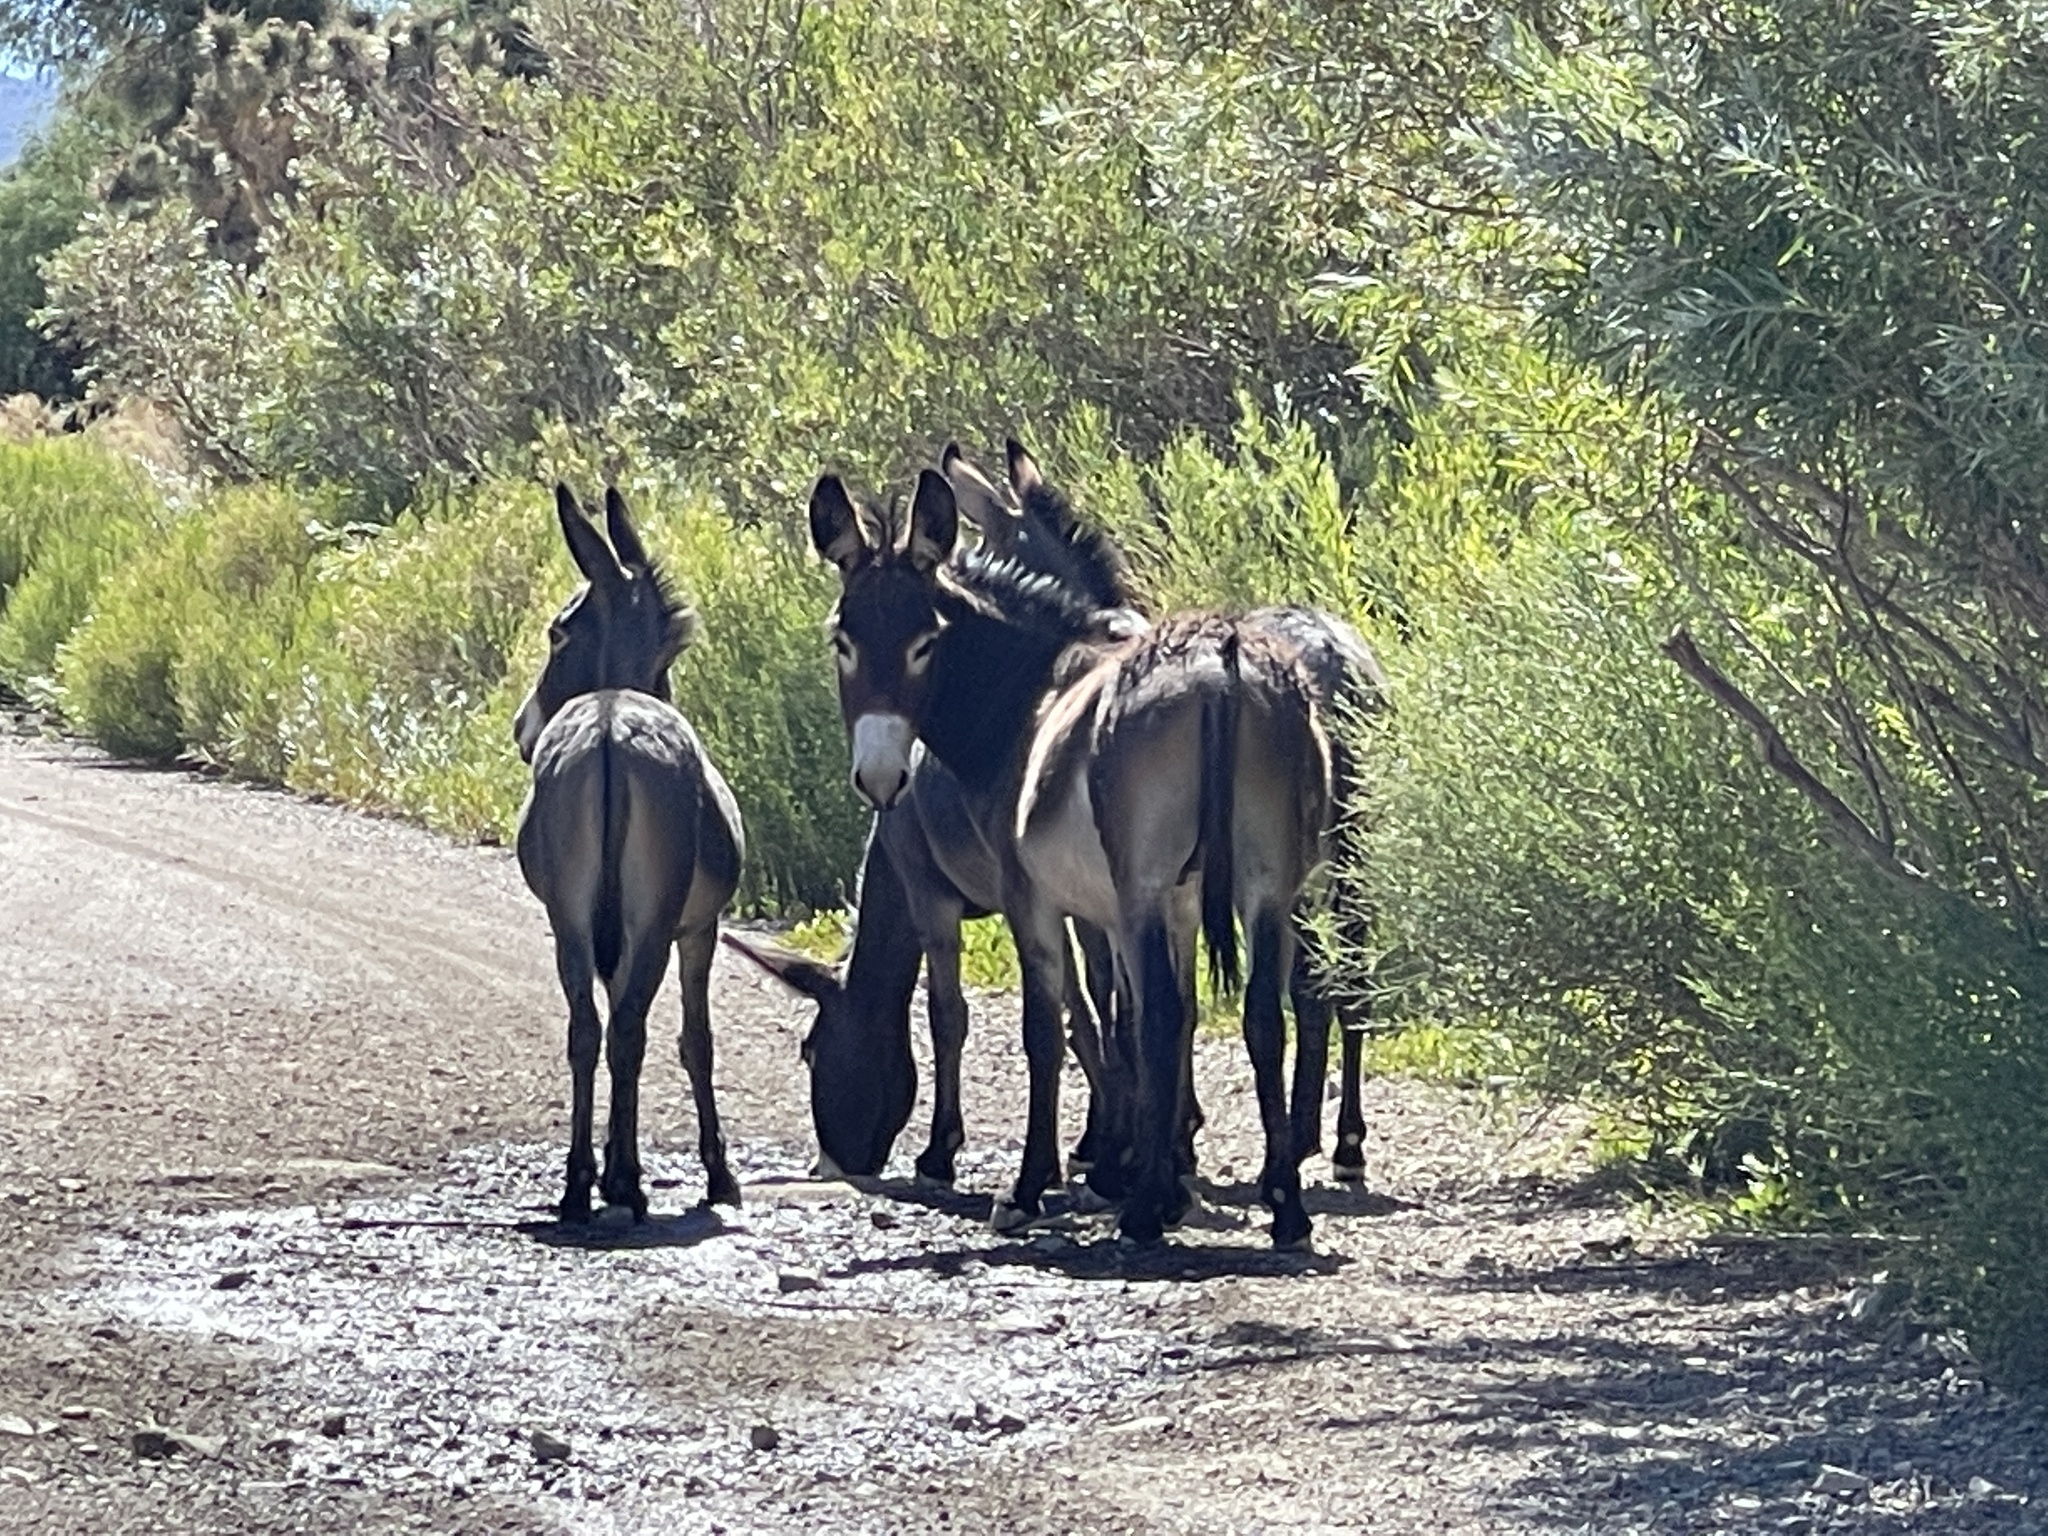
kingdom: Animalia
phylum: Chordata
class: Mammalia
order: Perissodactyla
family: Equidae
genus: Equus
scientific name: Equus asinus
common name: Ass
